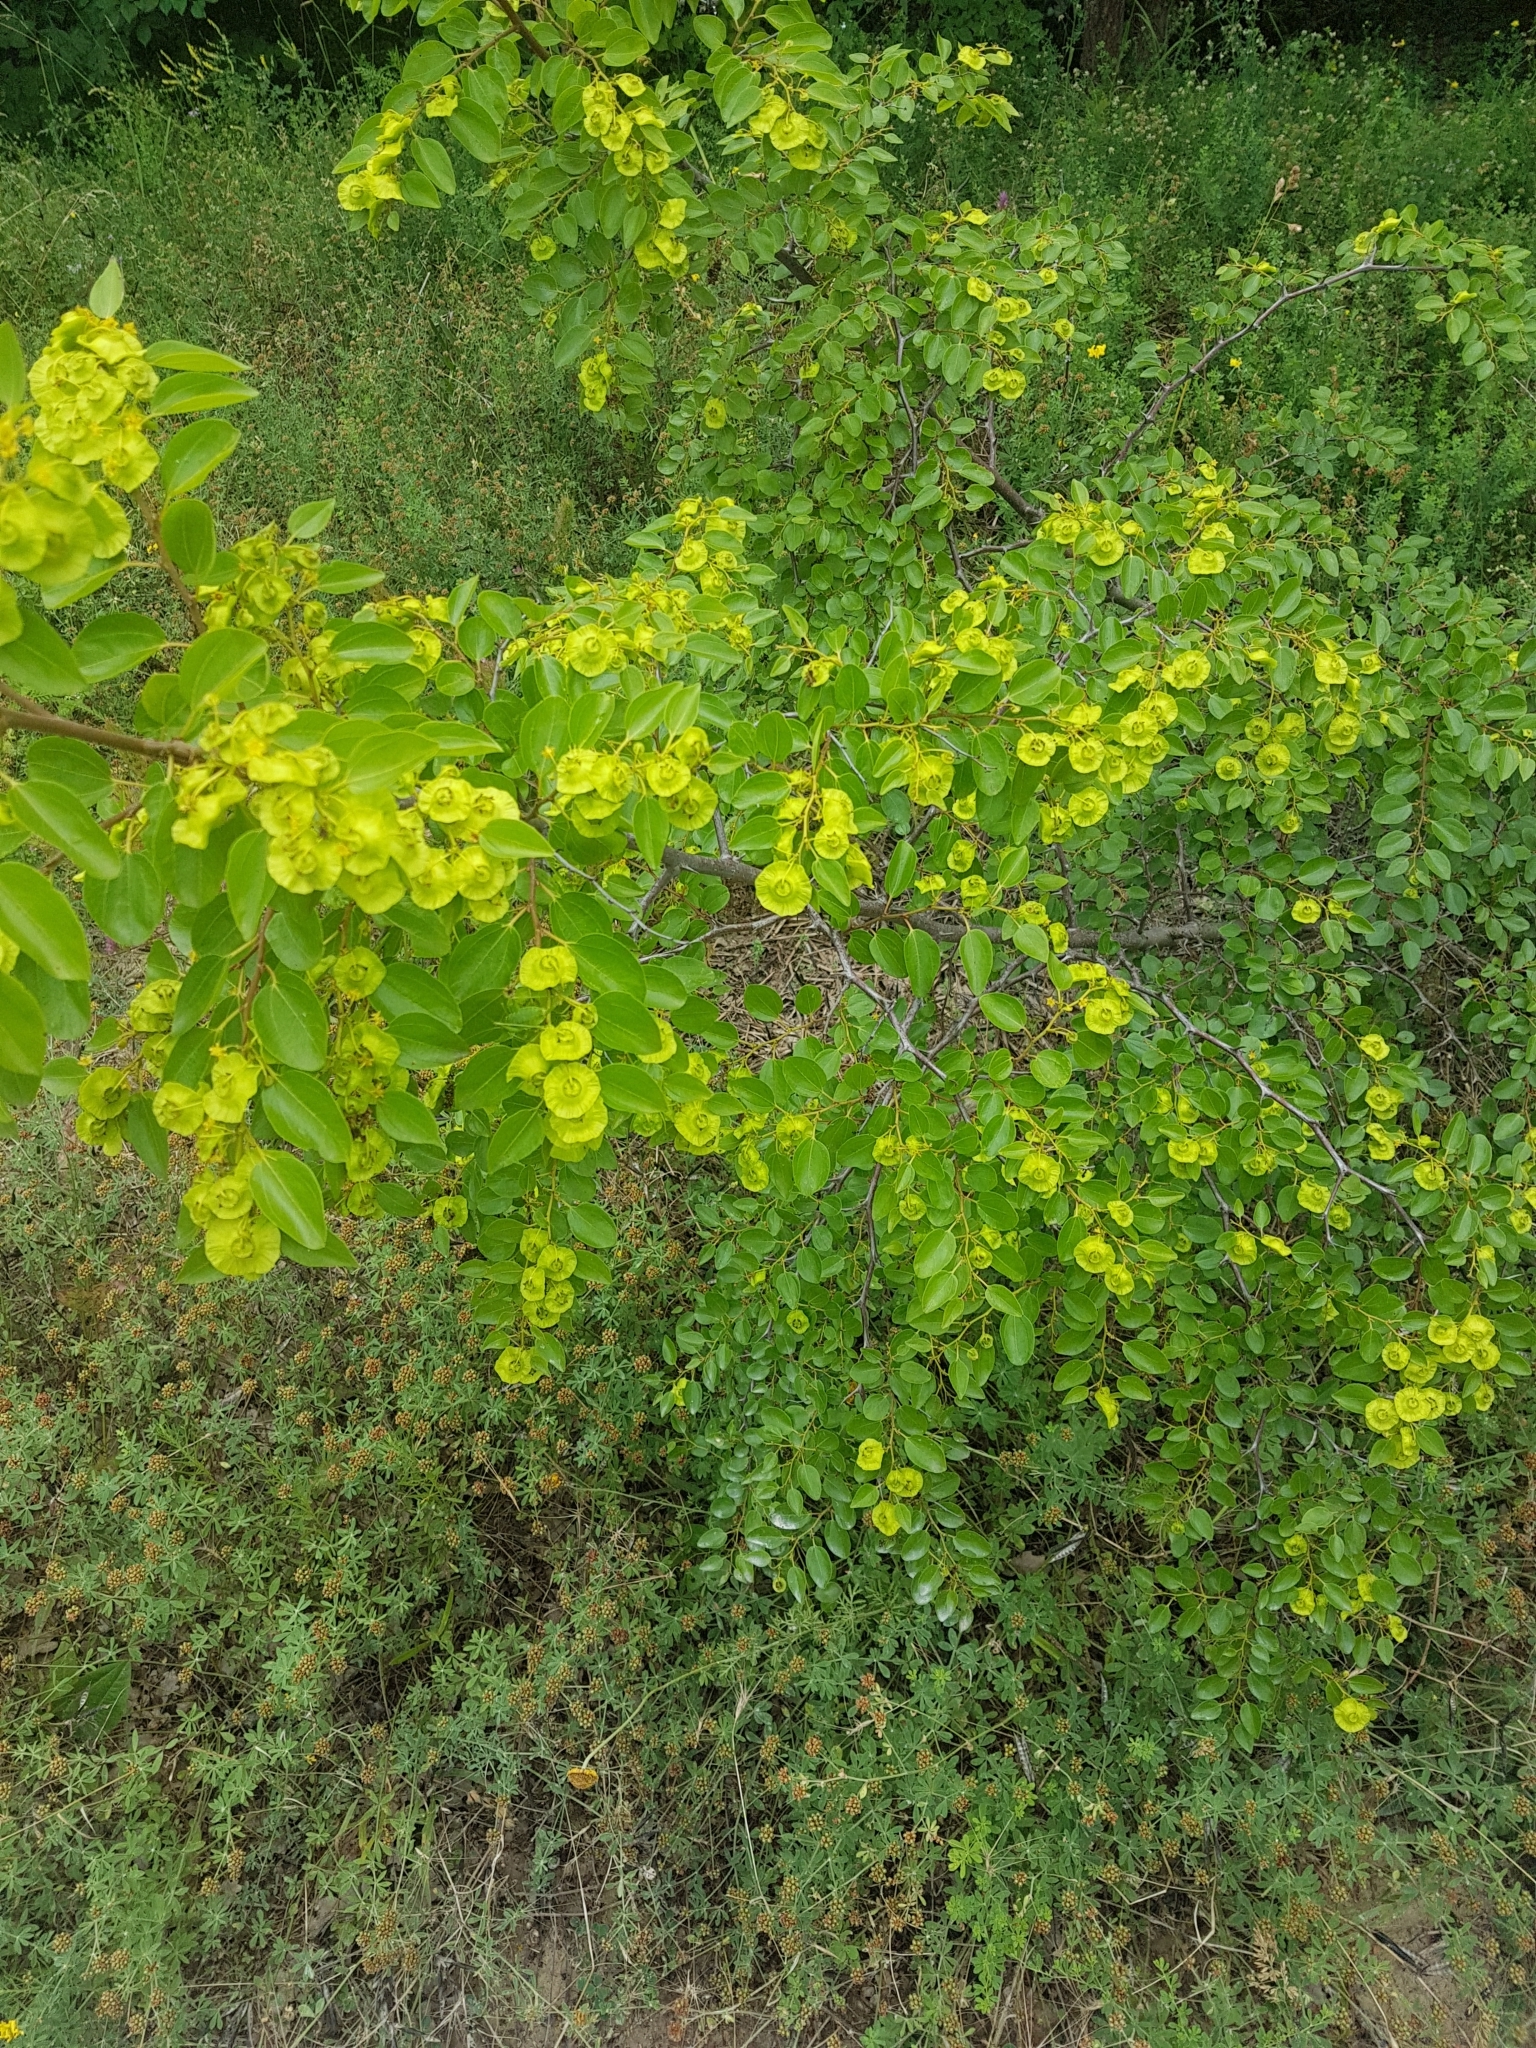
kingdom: Plantae
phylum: Tracheophyta
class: Magnoliopsida
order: Rosales
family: Rhamnaceae
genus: Paliurus
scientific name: Paliurus spina-christi
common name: Jeruselem thorn
